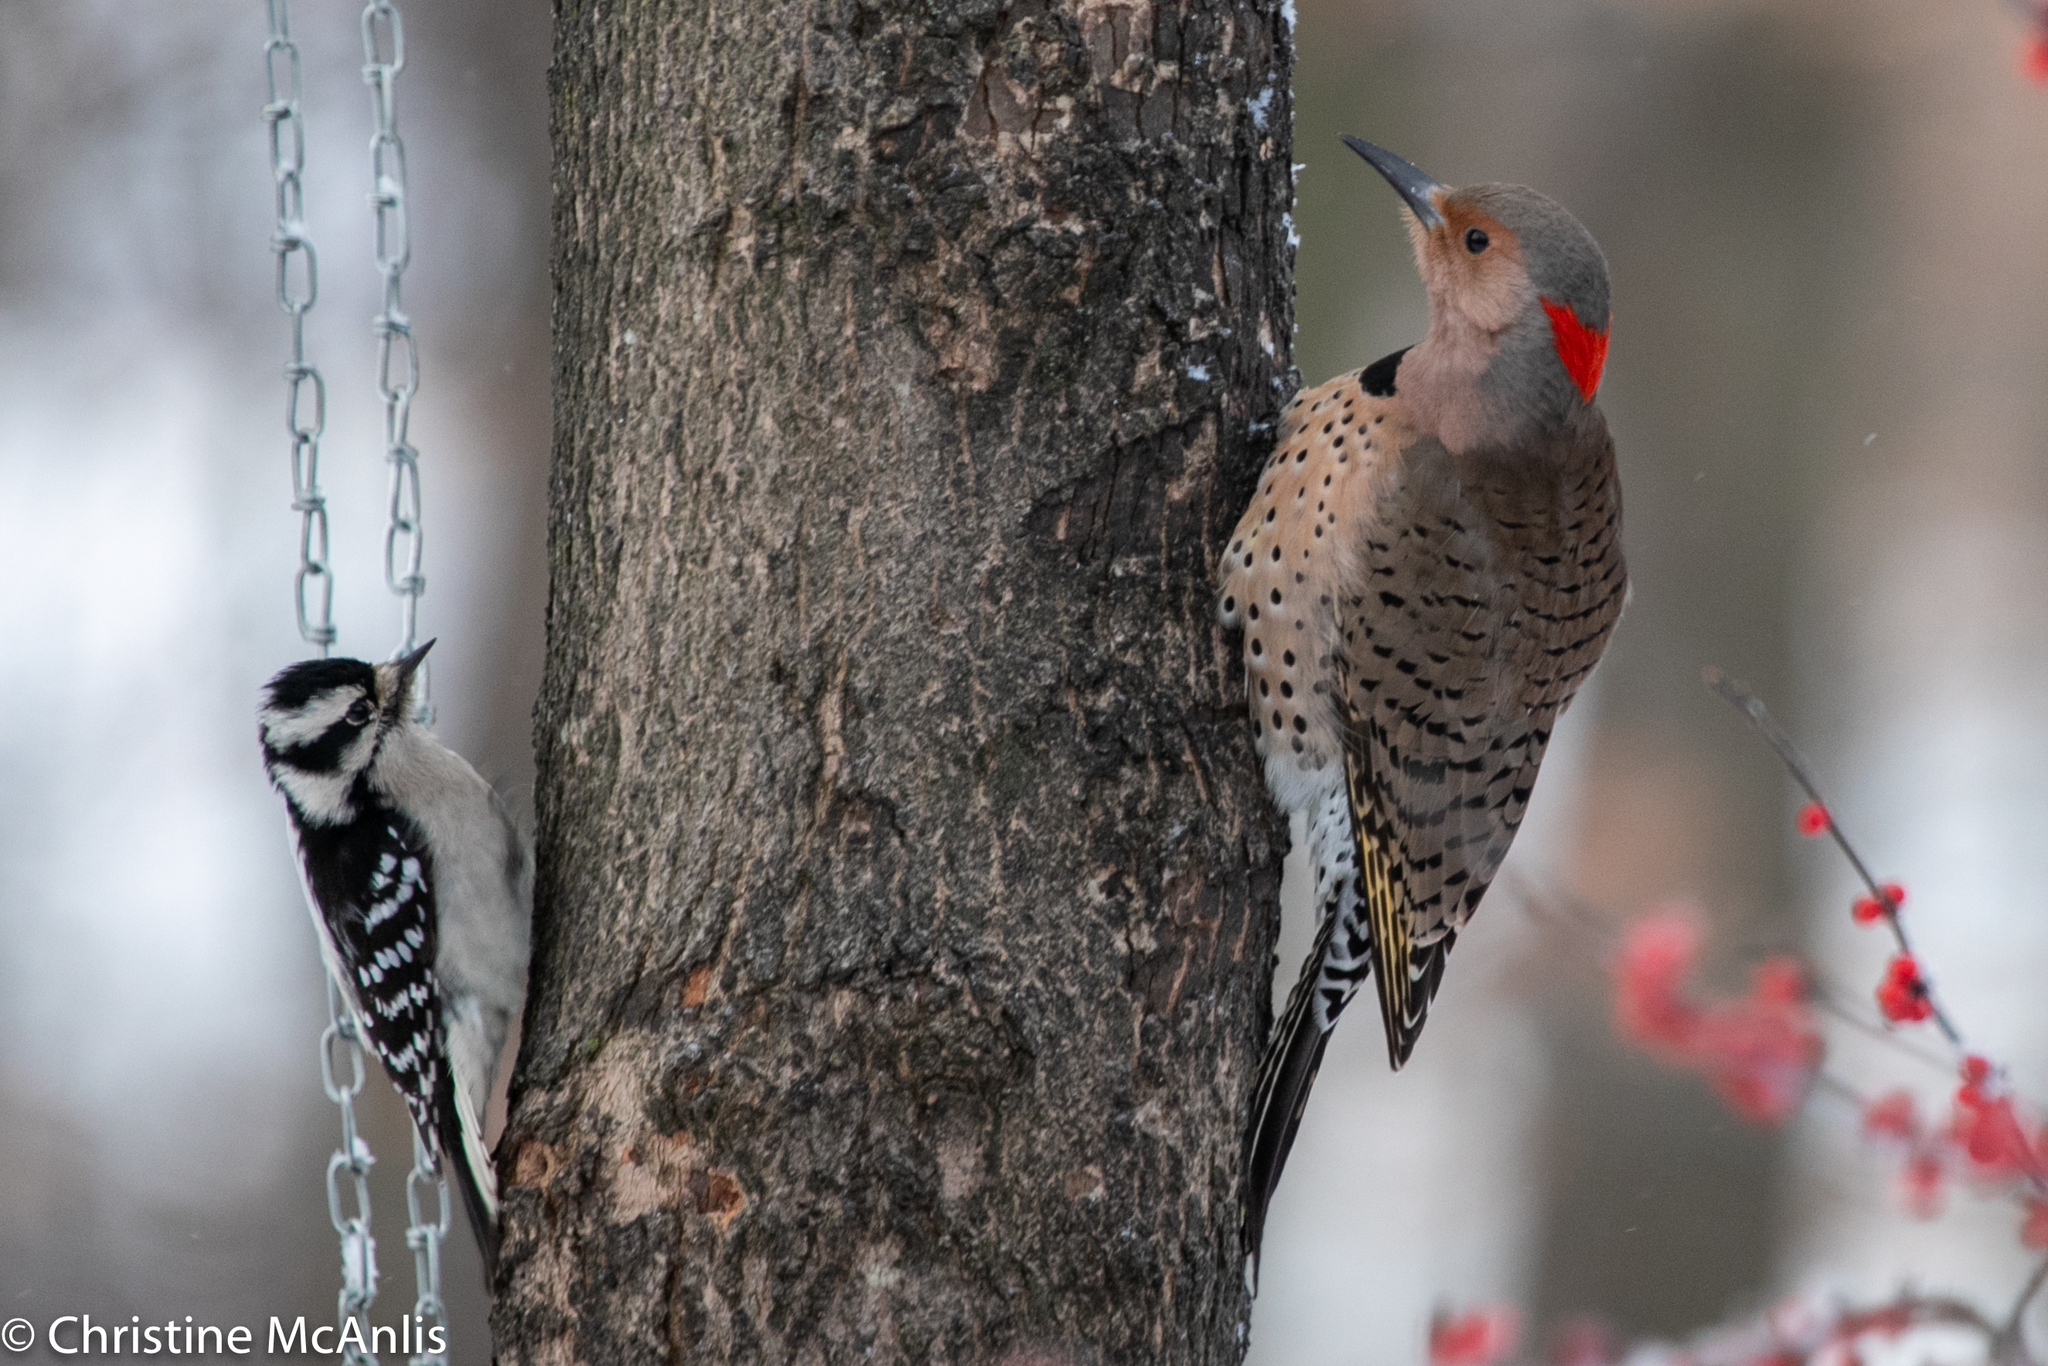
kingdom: Animalia
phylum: Chordata
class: Aves
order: Piciformes
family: Picidae
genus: Dryobates
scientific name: Dryobates pubescens
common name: Downy woodpecker
